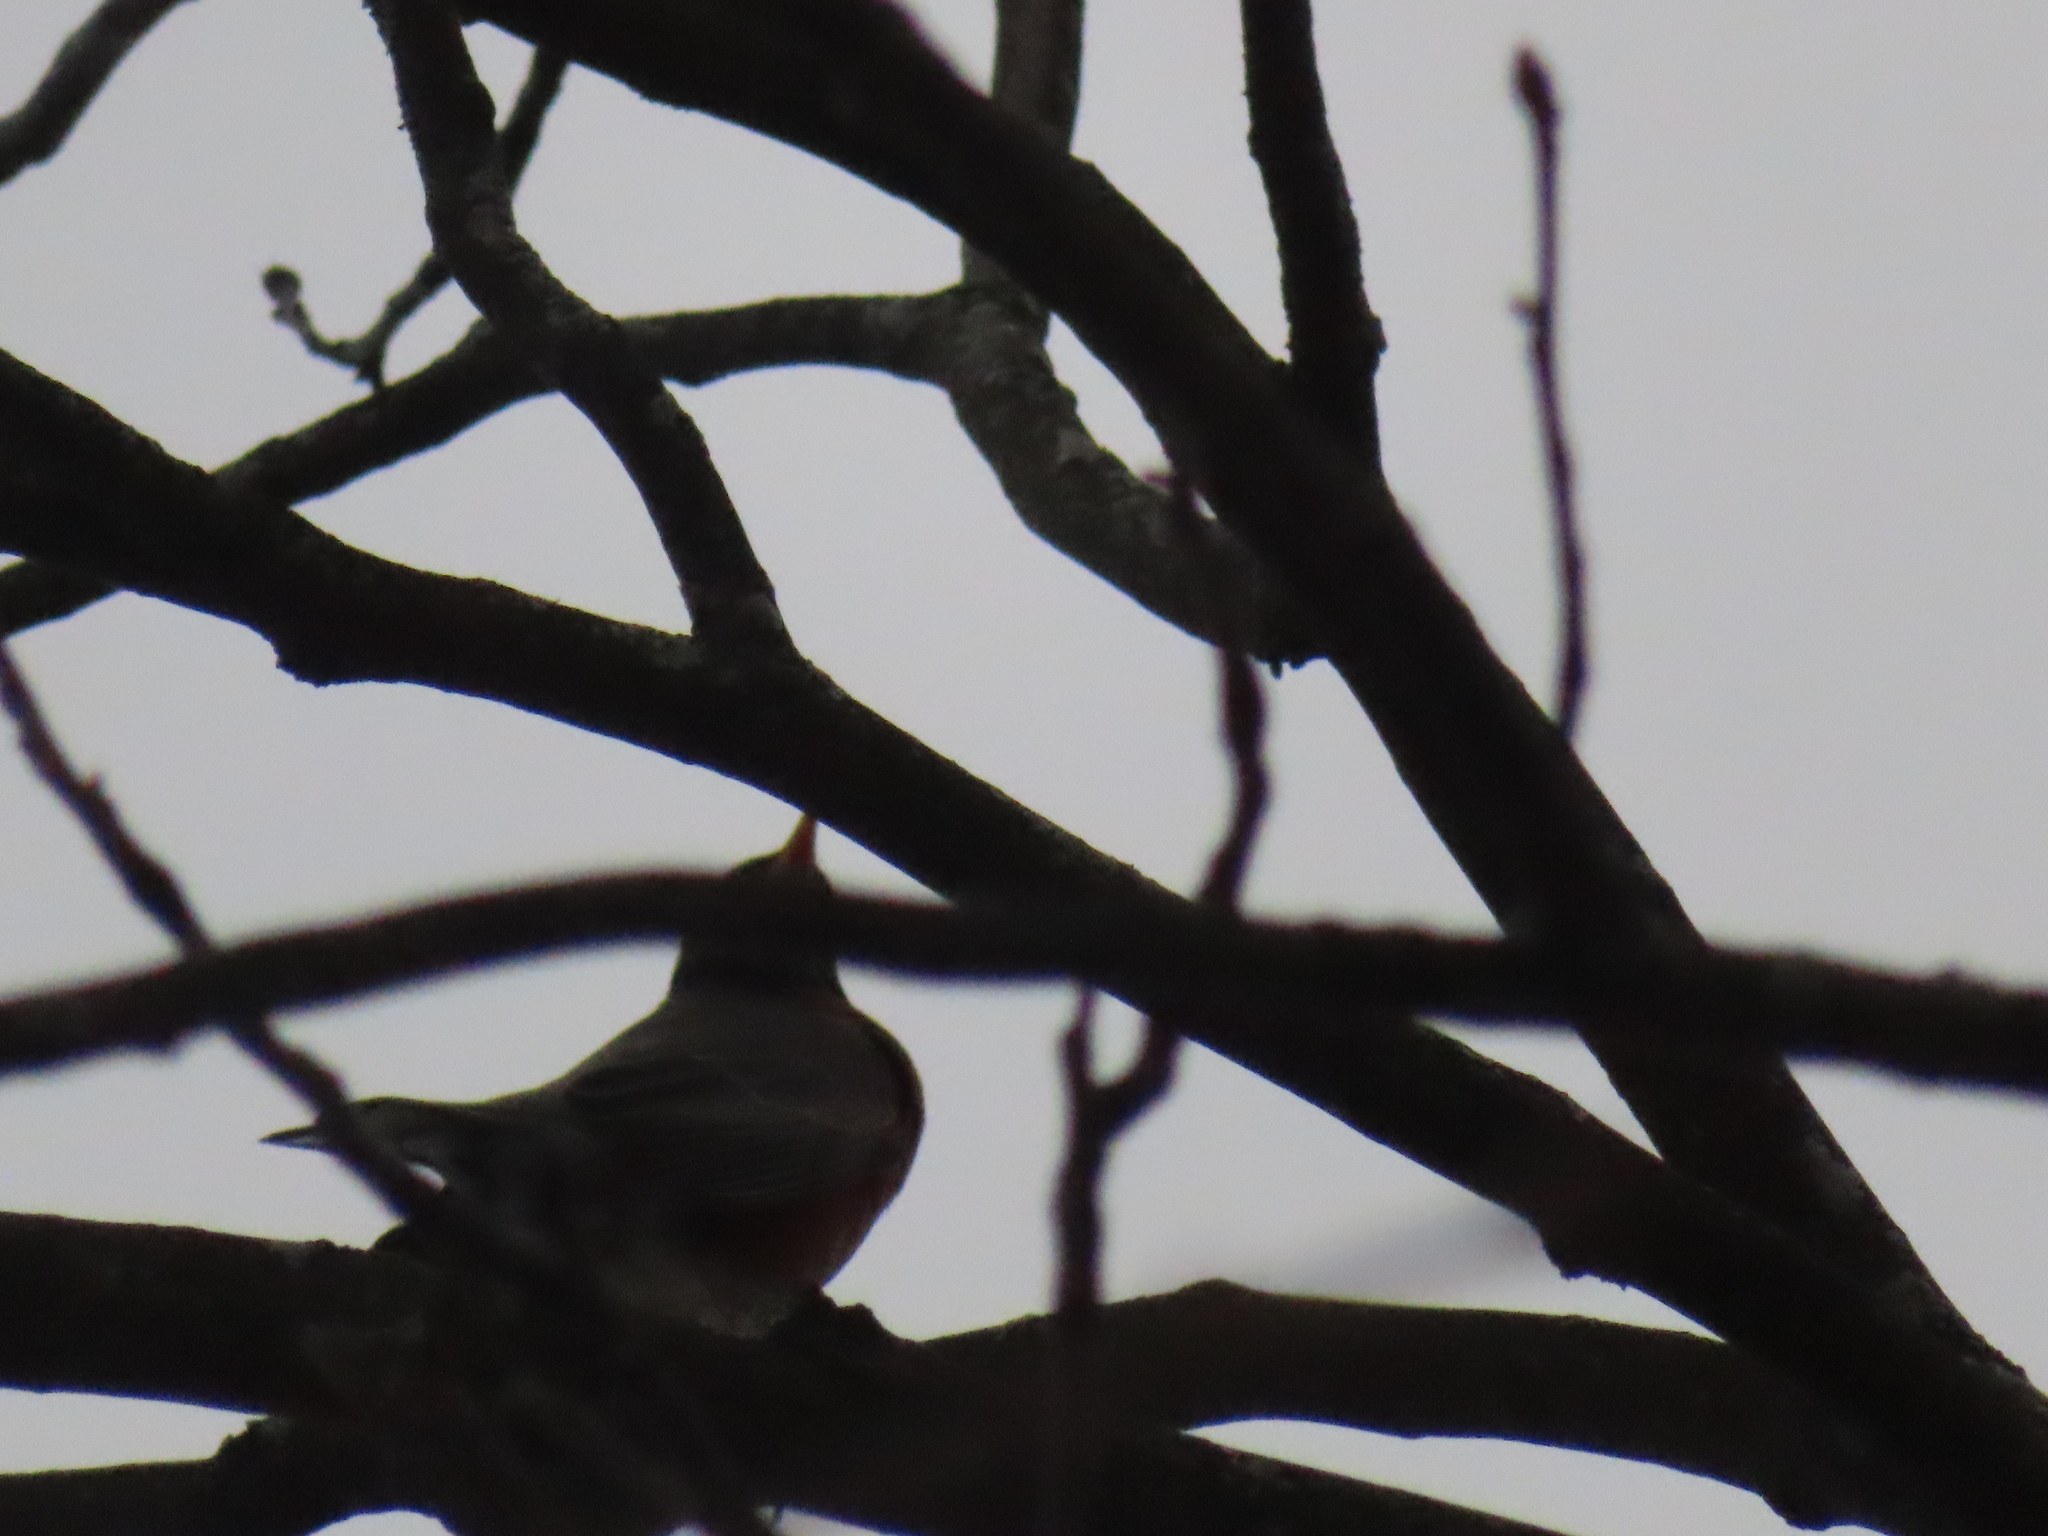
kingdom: Animalia
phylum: Chordata
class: Aves
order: Passeriformes
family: Turdidae
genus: Turdus
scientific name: Turdus migratorius
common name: American robin
